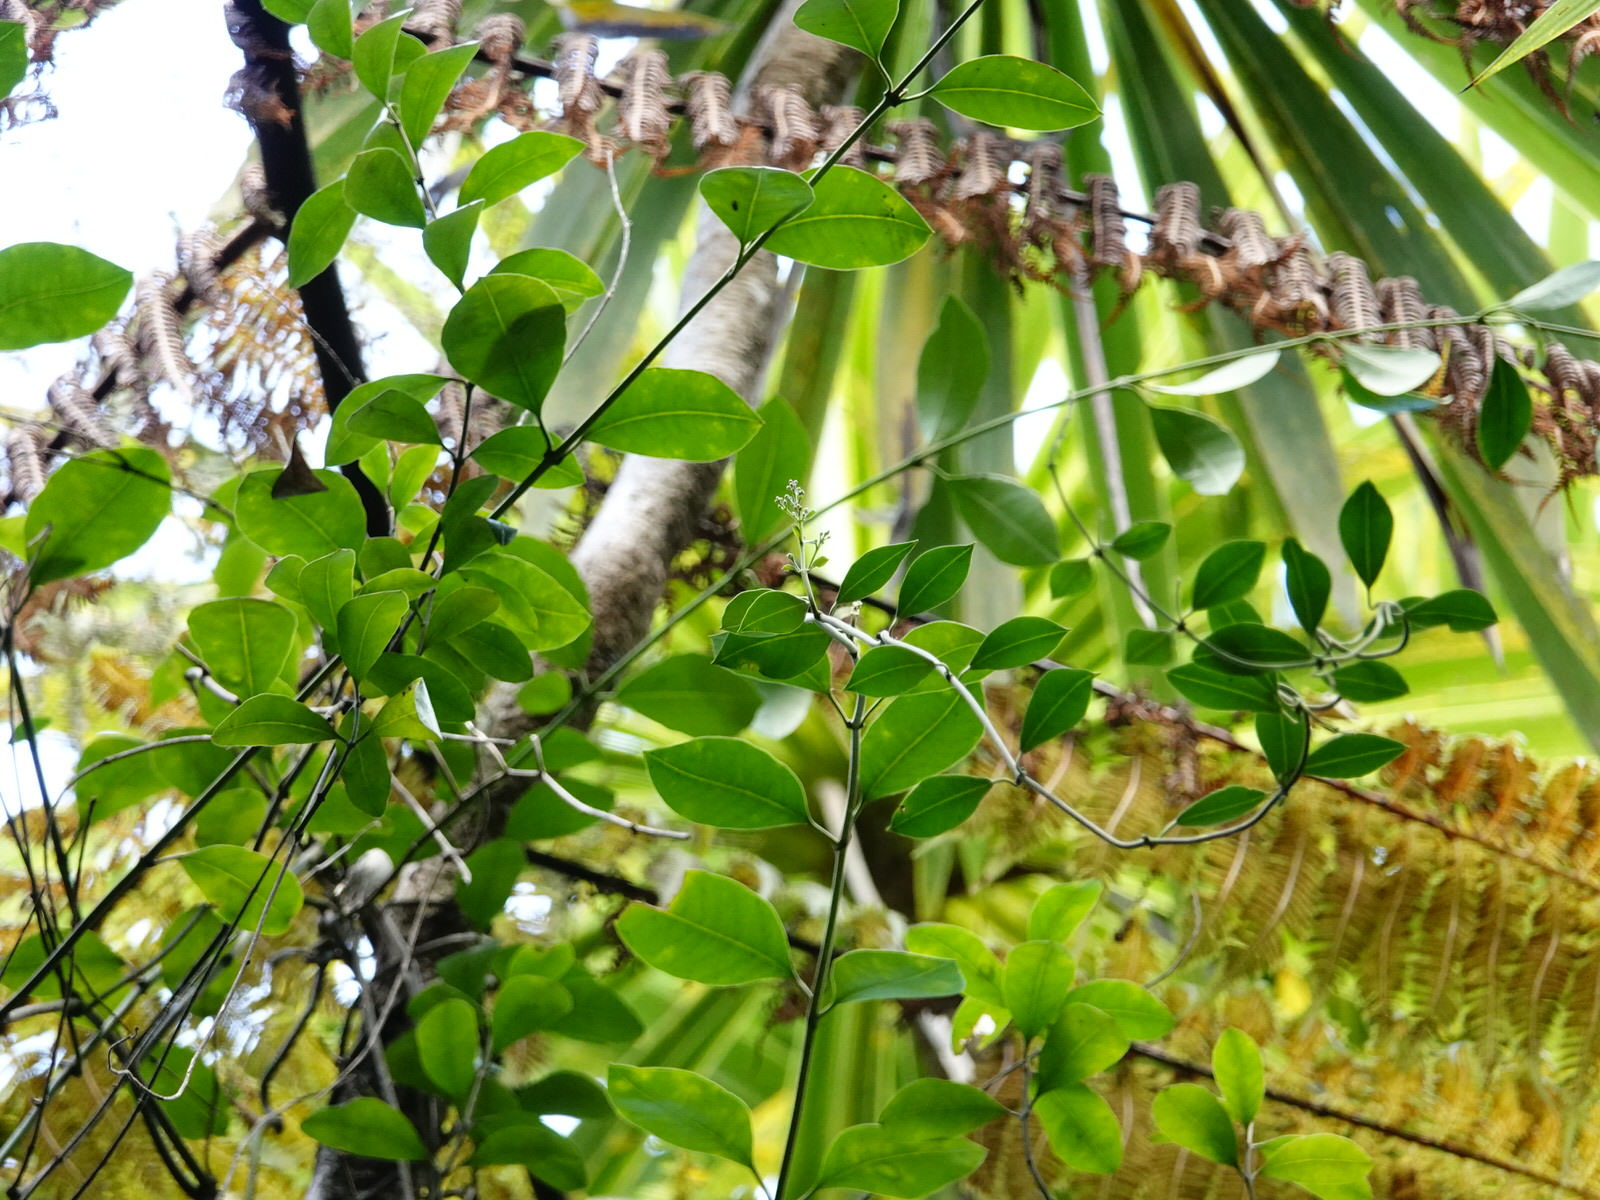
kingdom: Plantae
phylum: Tracheophyta
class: Magnoliopsida
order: Gentianales
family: Apocynaceae
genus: Parsonsia
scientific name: Parsonsia heterophylla
